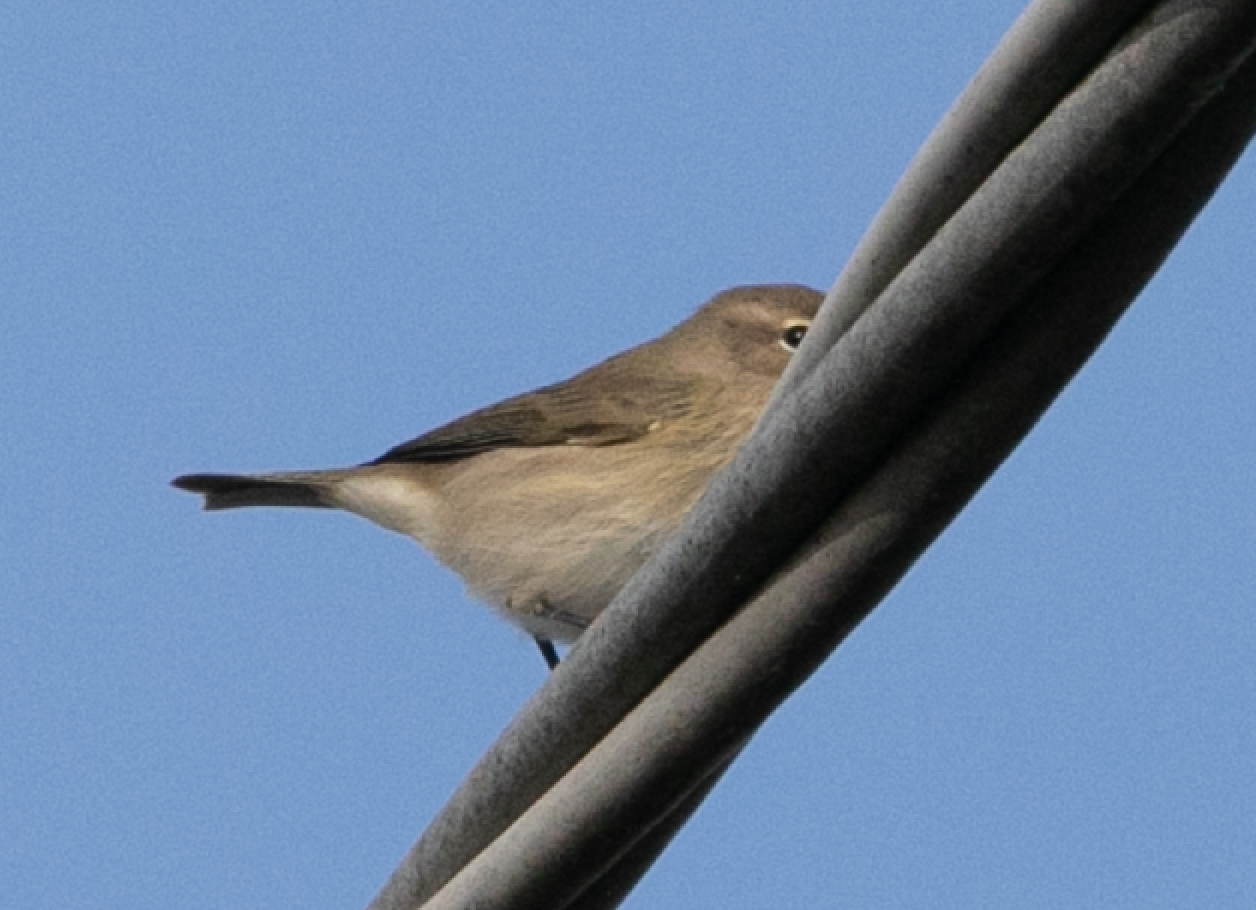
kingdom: Animalia
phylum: Chordata
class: Aves
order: Passeriformes
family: Phylloscopidae
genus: Phylloscopus
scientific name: Phylloscopus collybita
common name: Common chiffchaff
